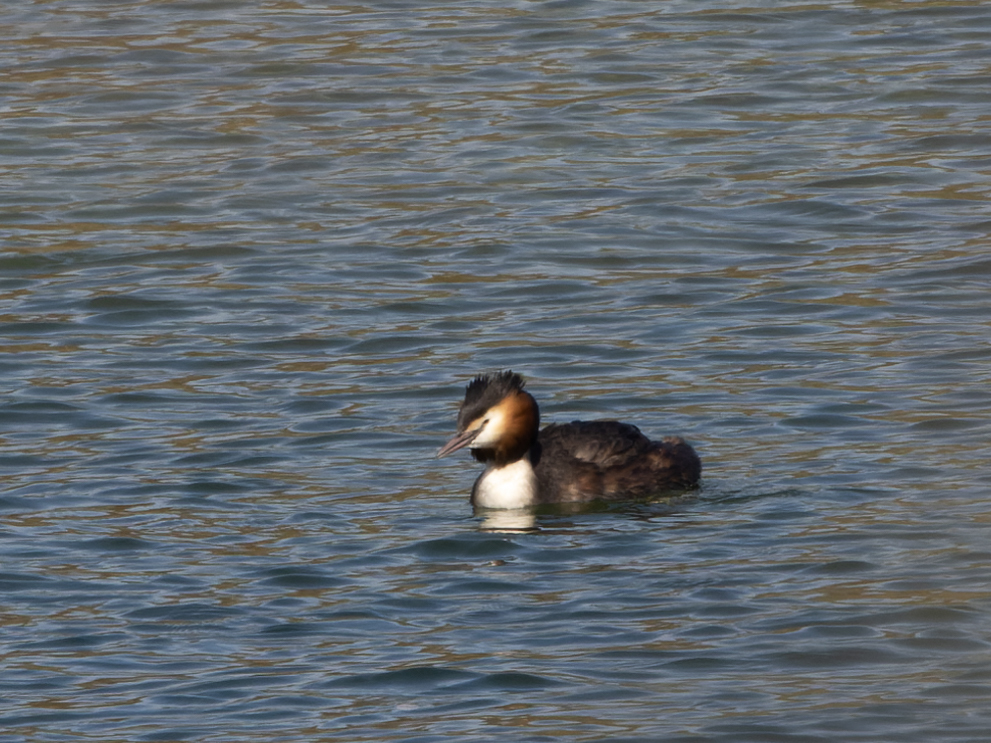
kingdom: Animalia
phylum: Chordata
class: Aves
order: Podicipediformes
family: Podicipedidae
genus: Podiceps
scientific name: Podiceps cristatus
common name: Great crested grebe
